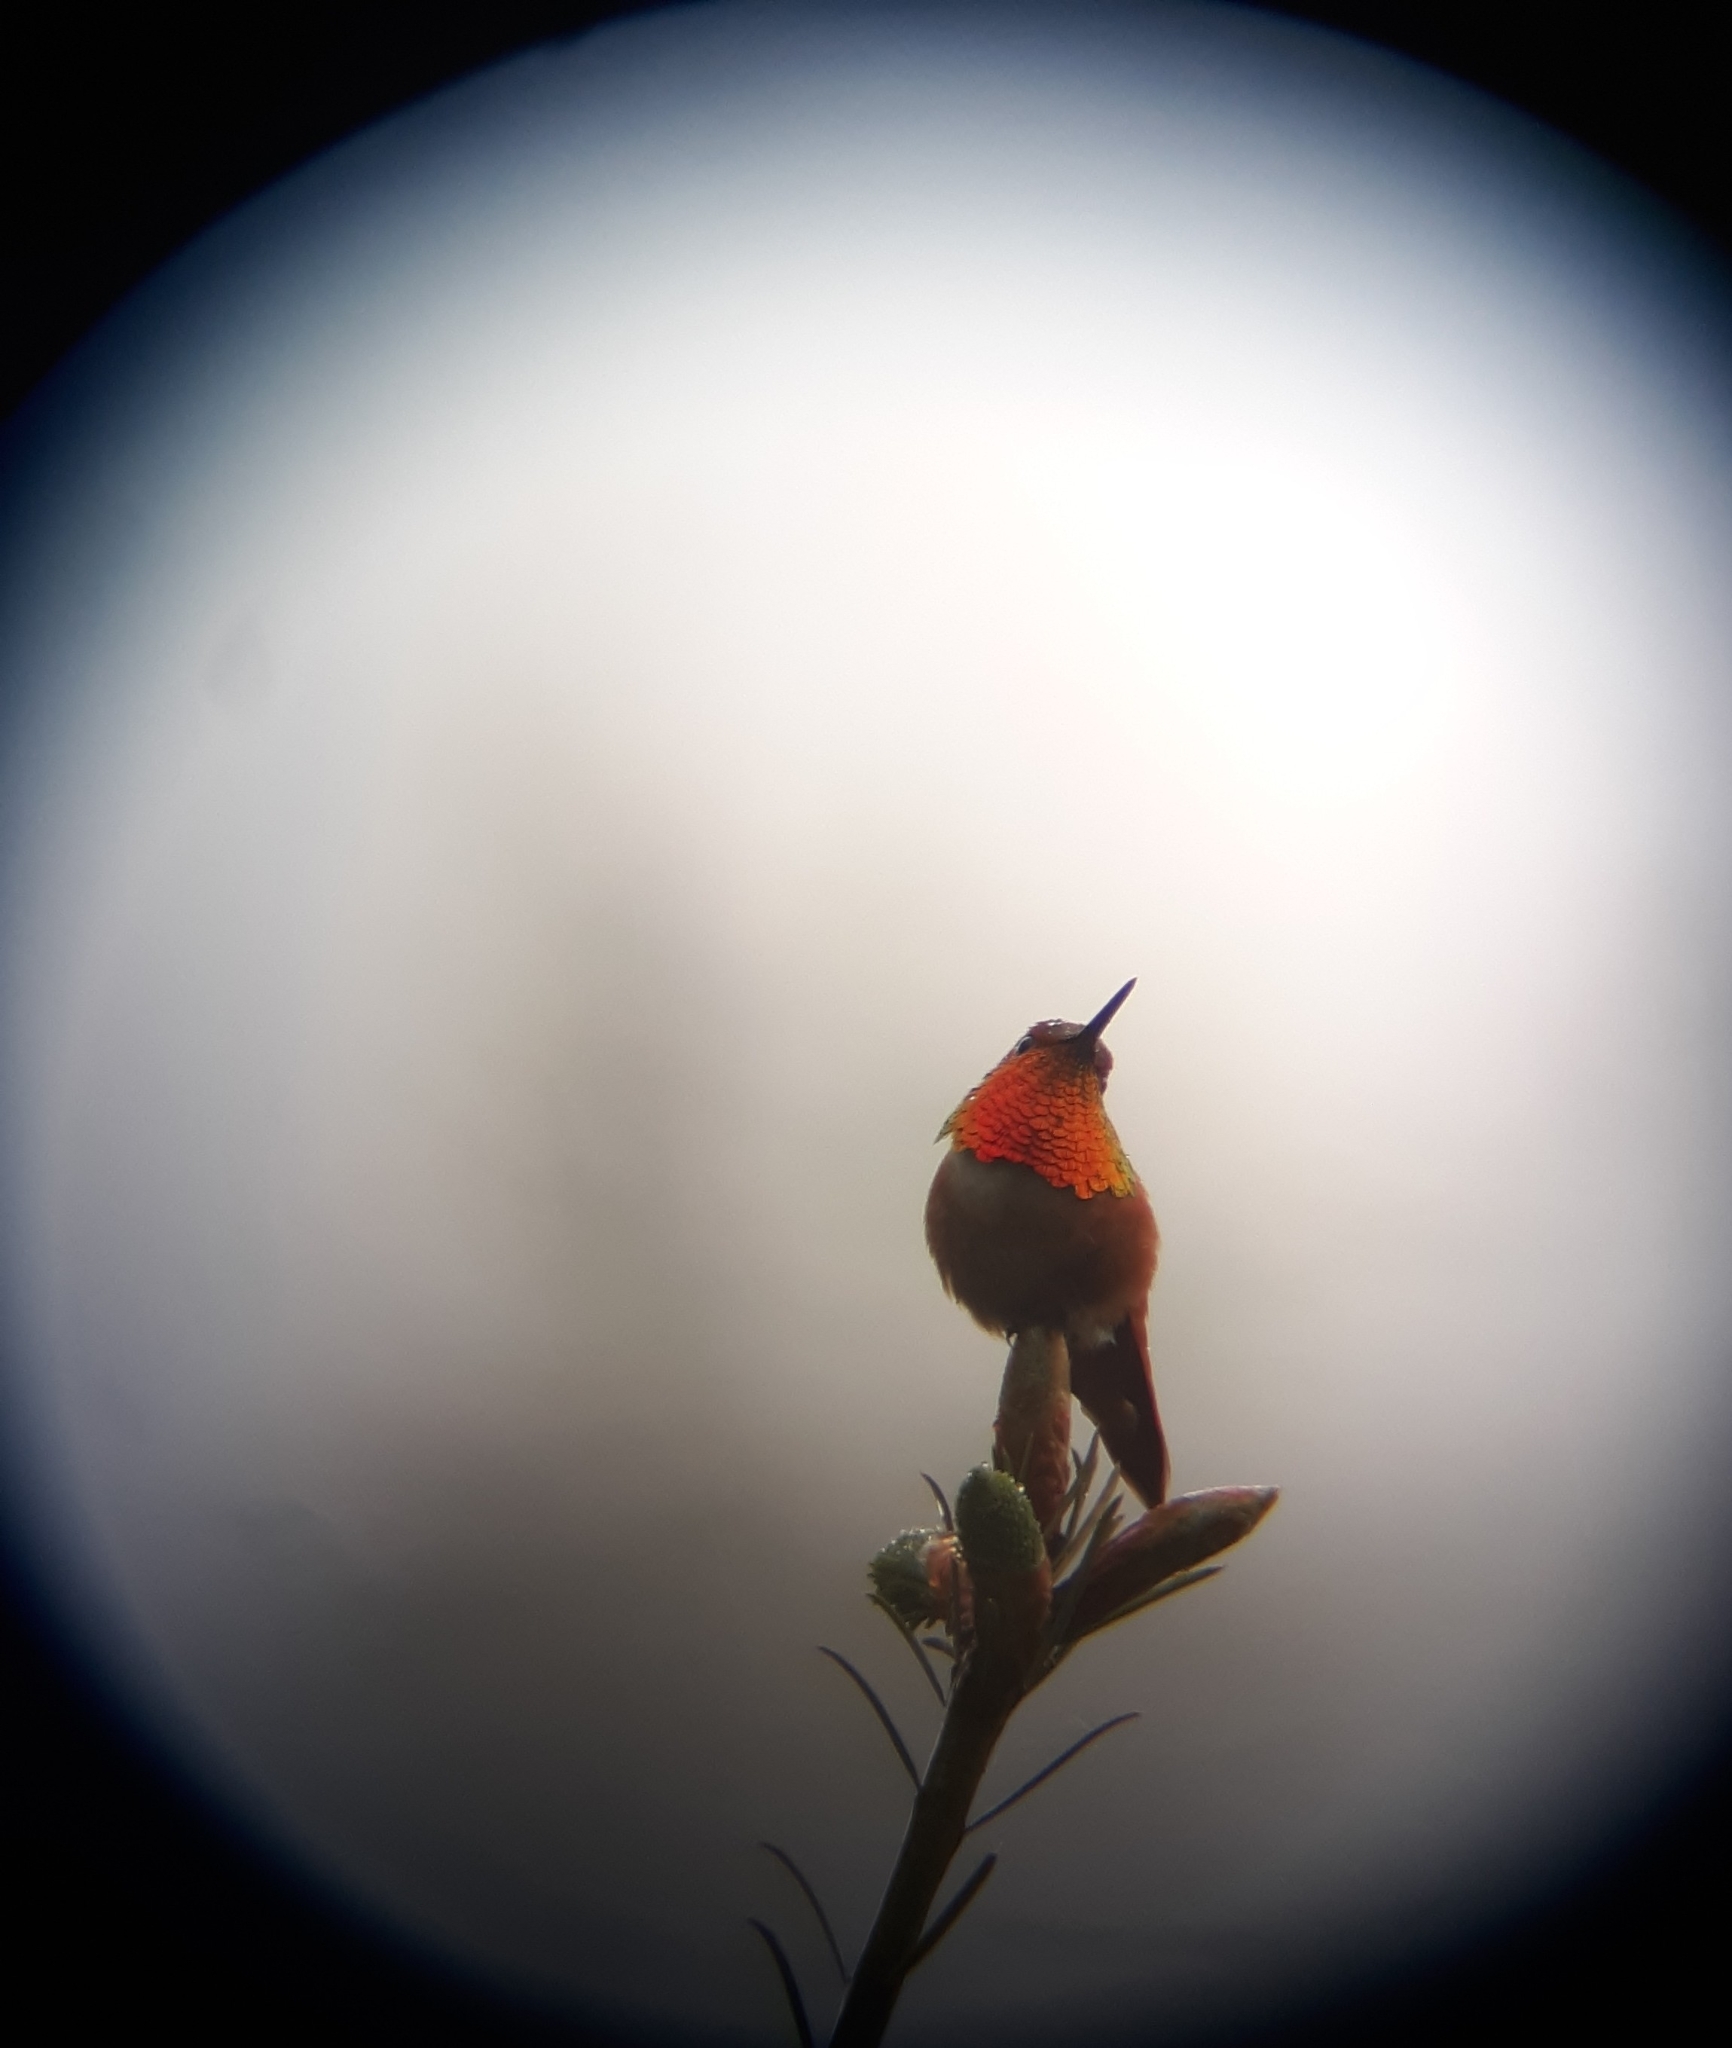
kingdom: Animalia
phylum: Chordata
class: Aves
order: Apodiformes
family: Trochilidae
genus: Selasphorus
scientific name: Selasphorus rufus
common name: Rufous hummingbird
